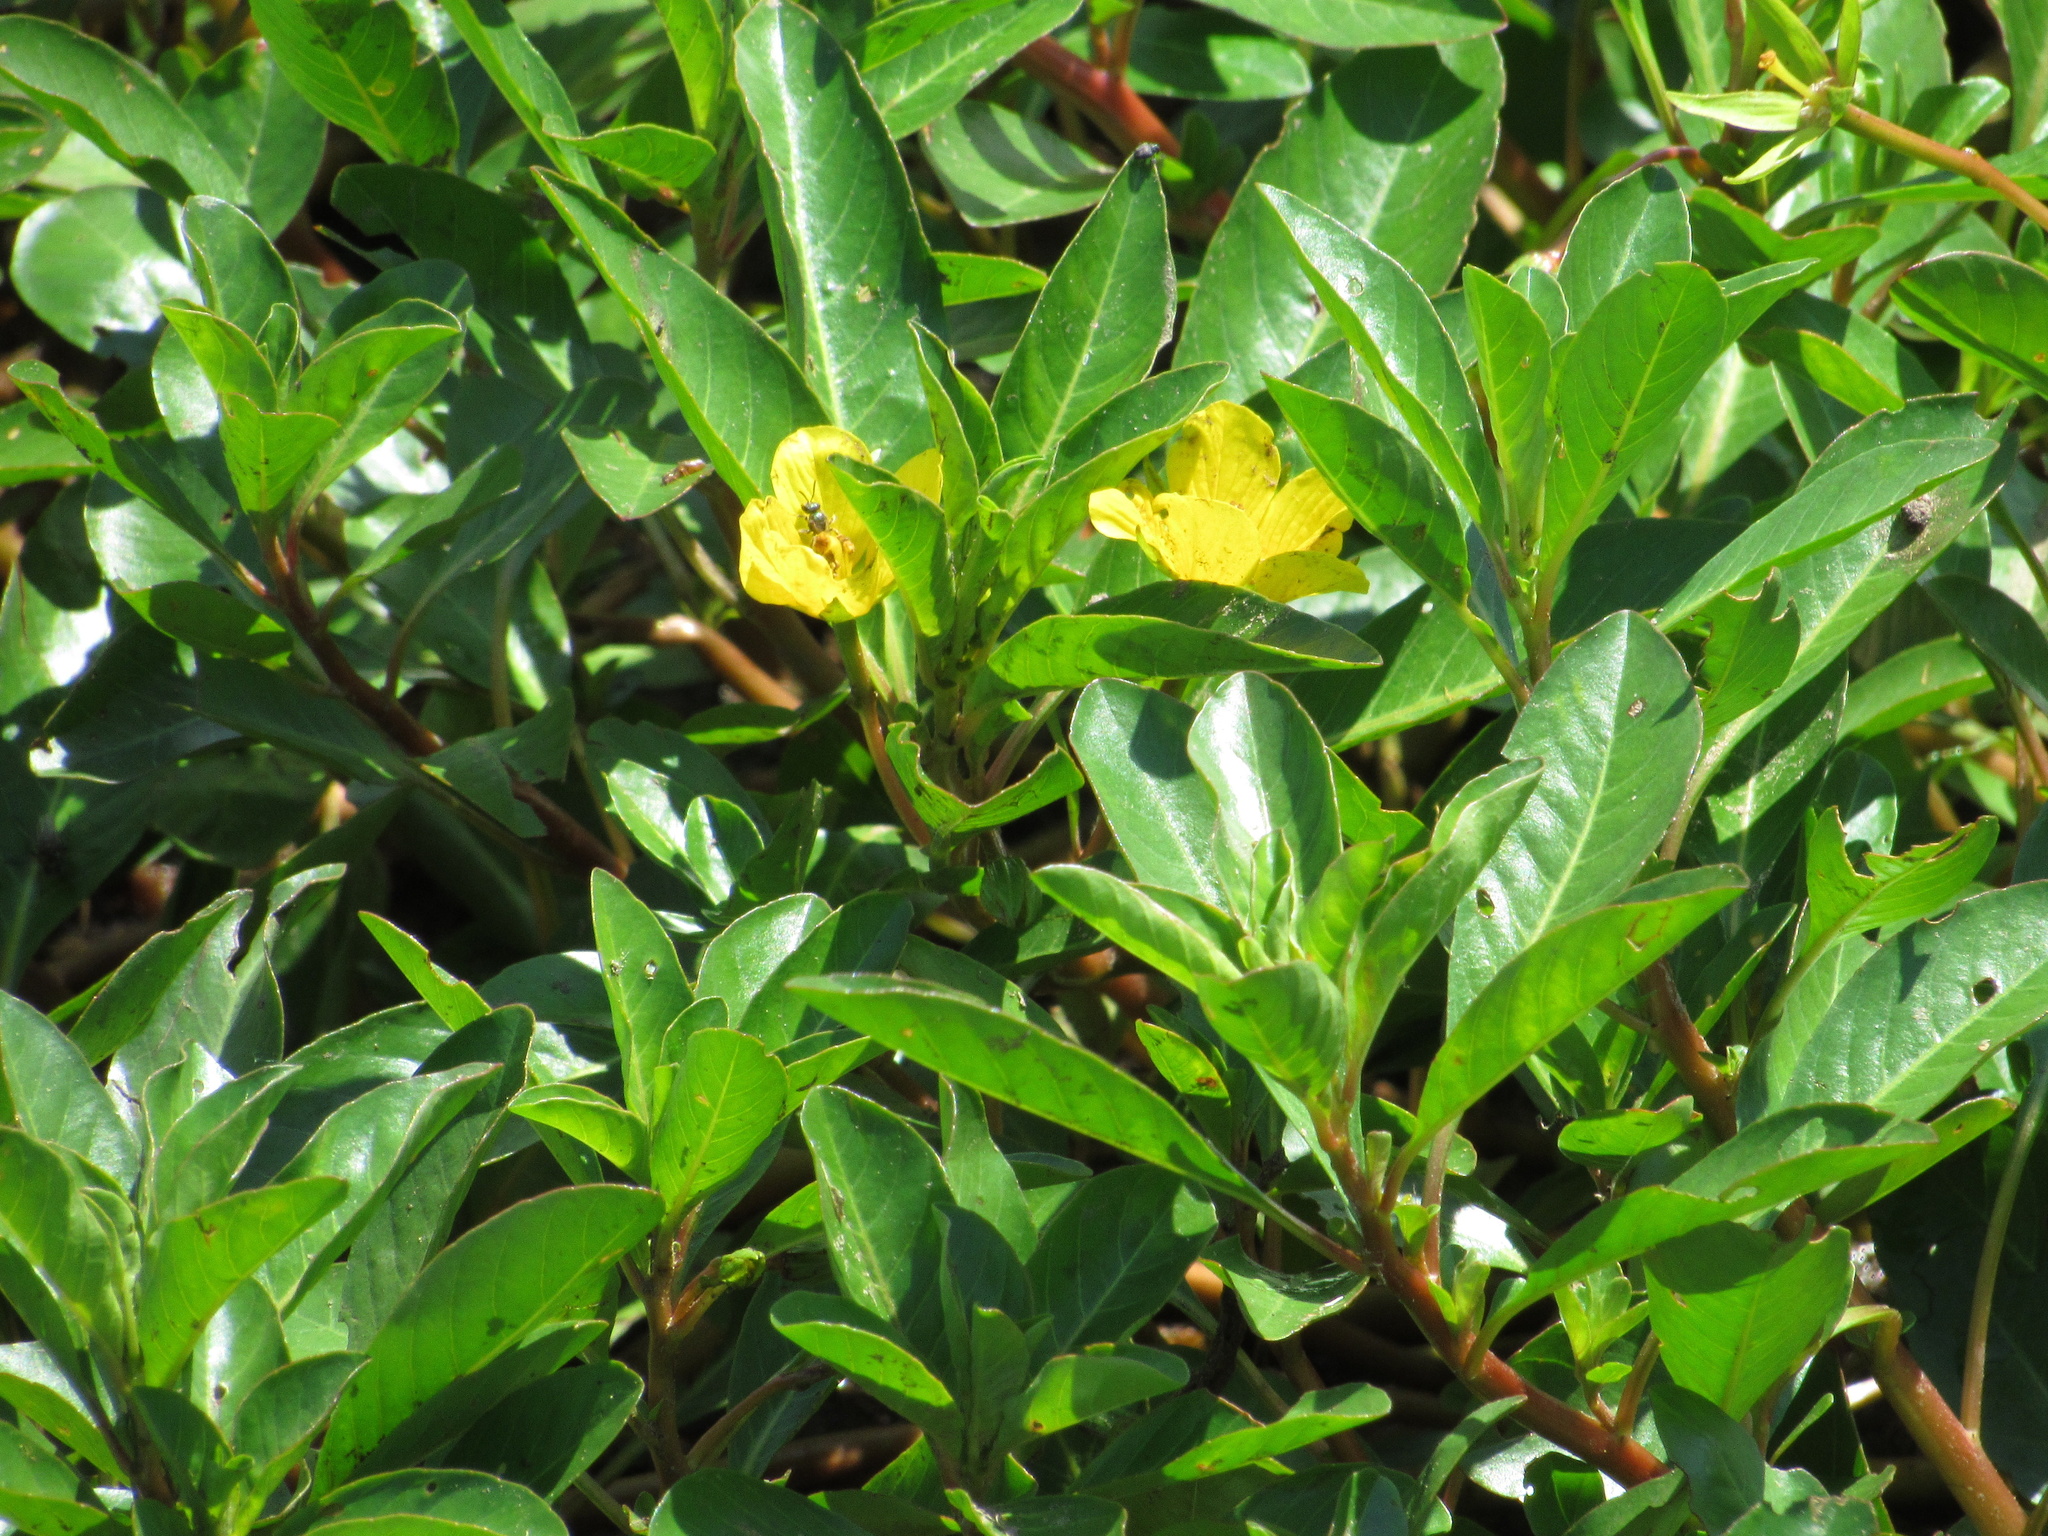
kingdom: Plantae
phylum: Tracheophyta
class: Magnoliopsida
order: Myrtales
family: Onagraceae
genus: Ludwigia
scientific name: Ludwigia peploides
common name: Floating primrose-willow
